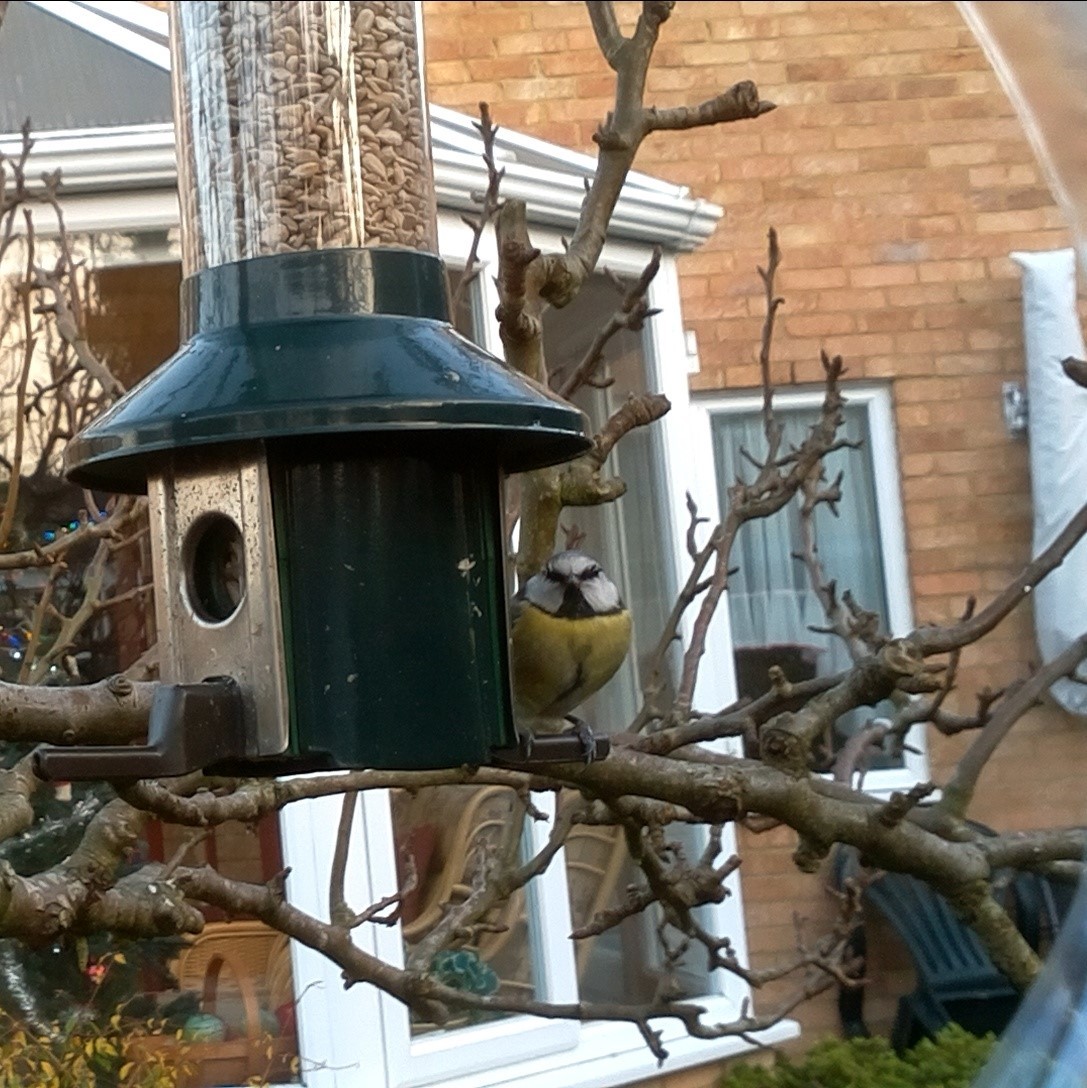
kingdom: Animalia
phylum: Chordata
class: Aves
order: Passeriformes
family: Paridae
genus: Cyanistes
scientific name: Cyanistes caeruleus
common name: Eurasian blue tit
